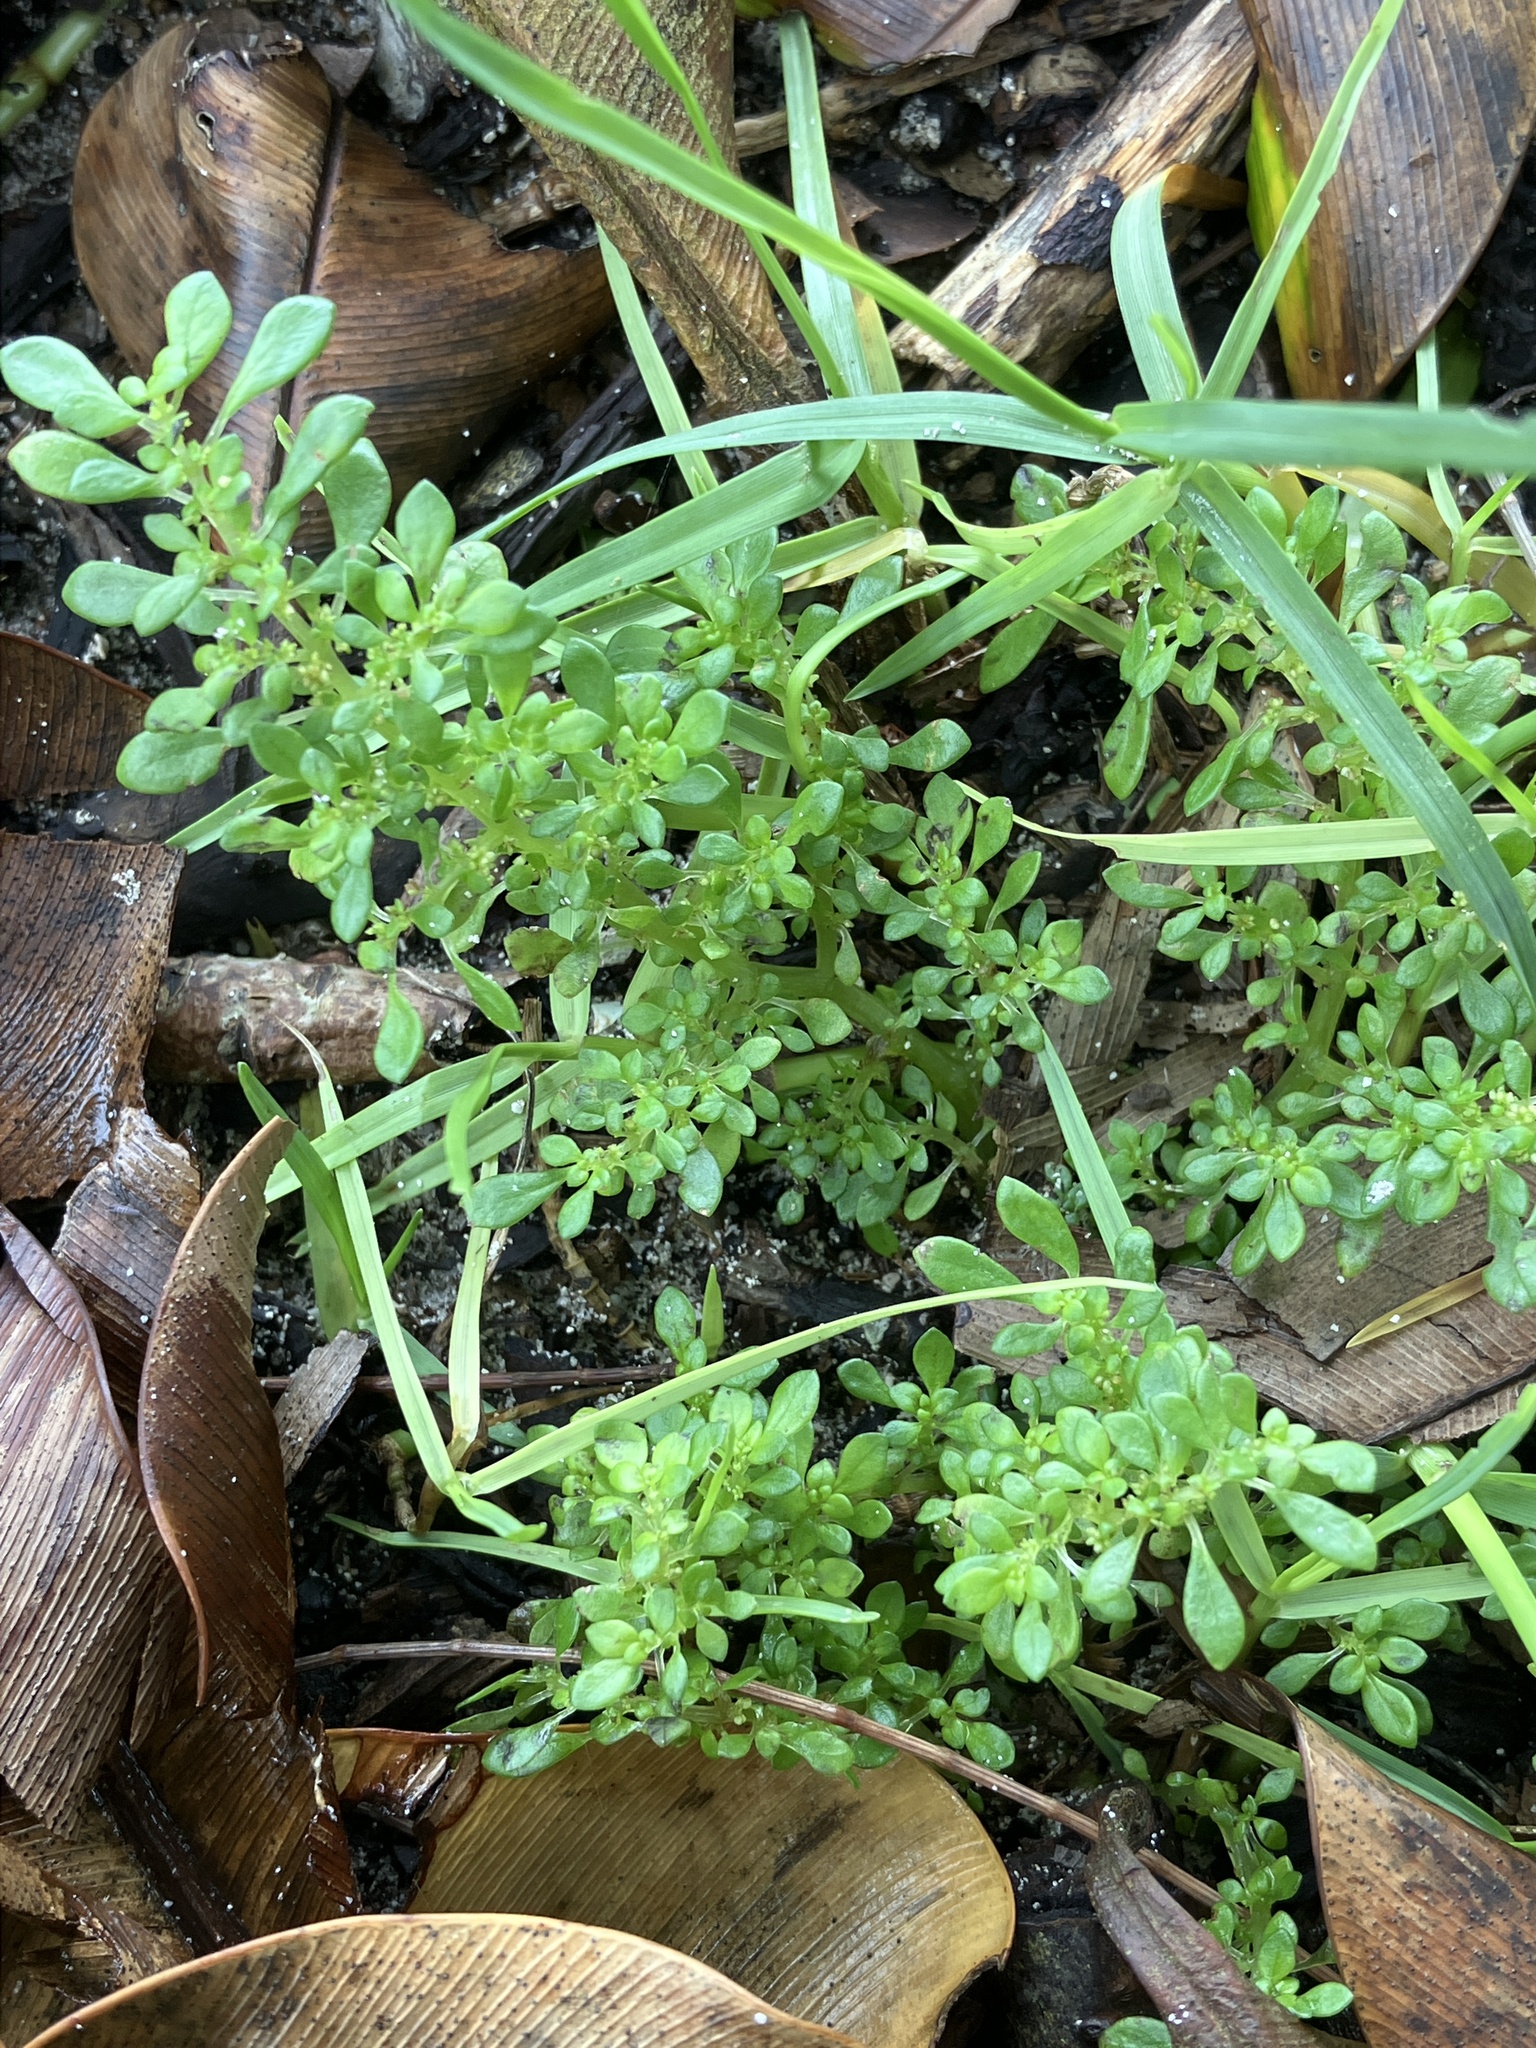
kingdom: Plantae
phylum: Tracheophyta
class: Magnoliopsida
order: Rosales
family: Urticaceae
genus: Pilea
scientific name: Pilea microphylla
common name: Artillery-plant
